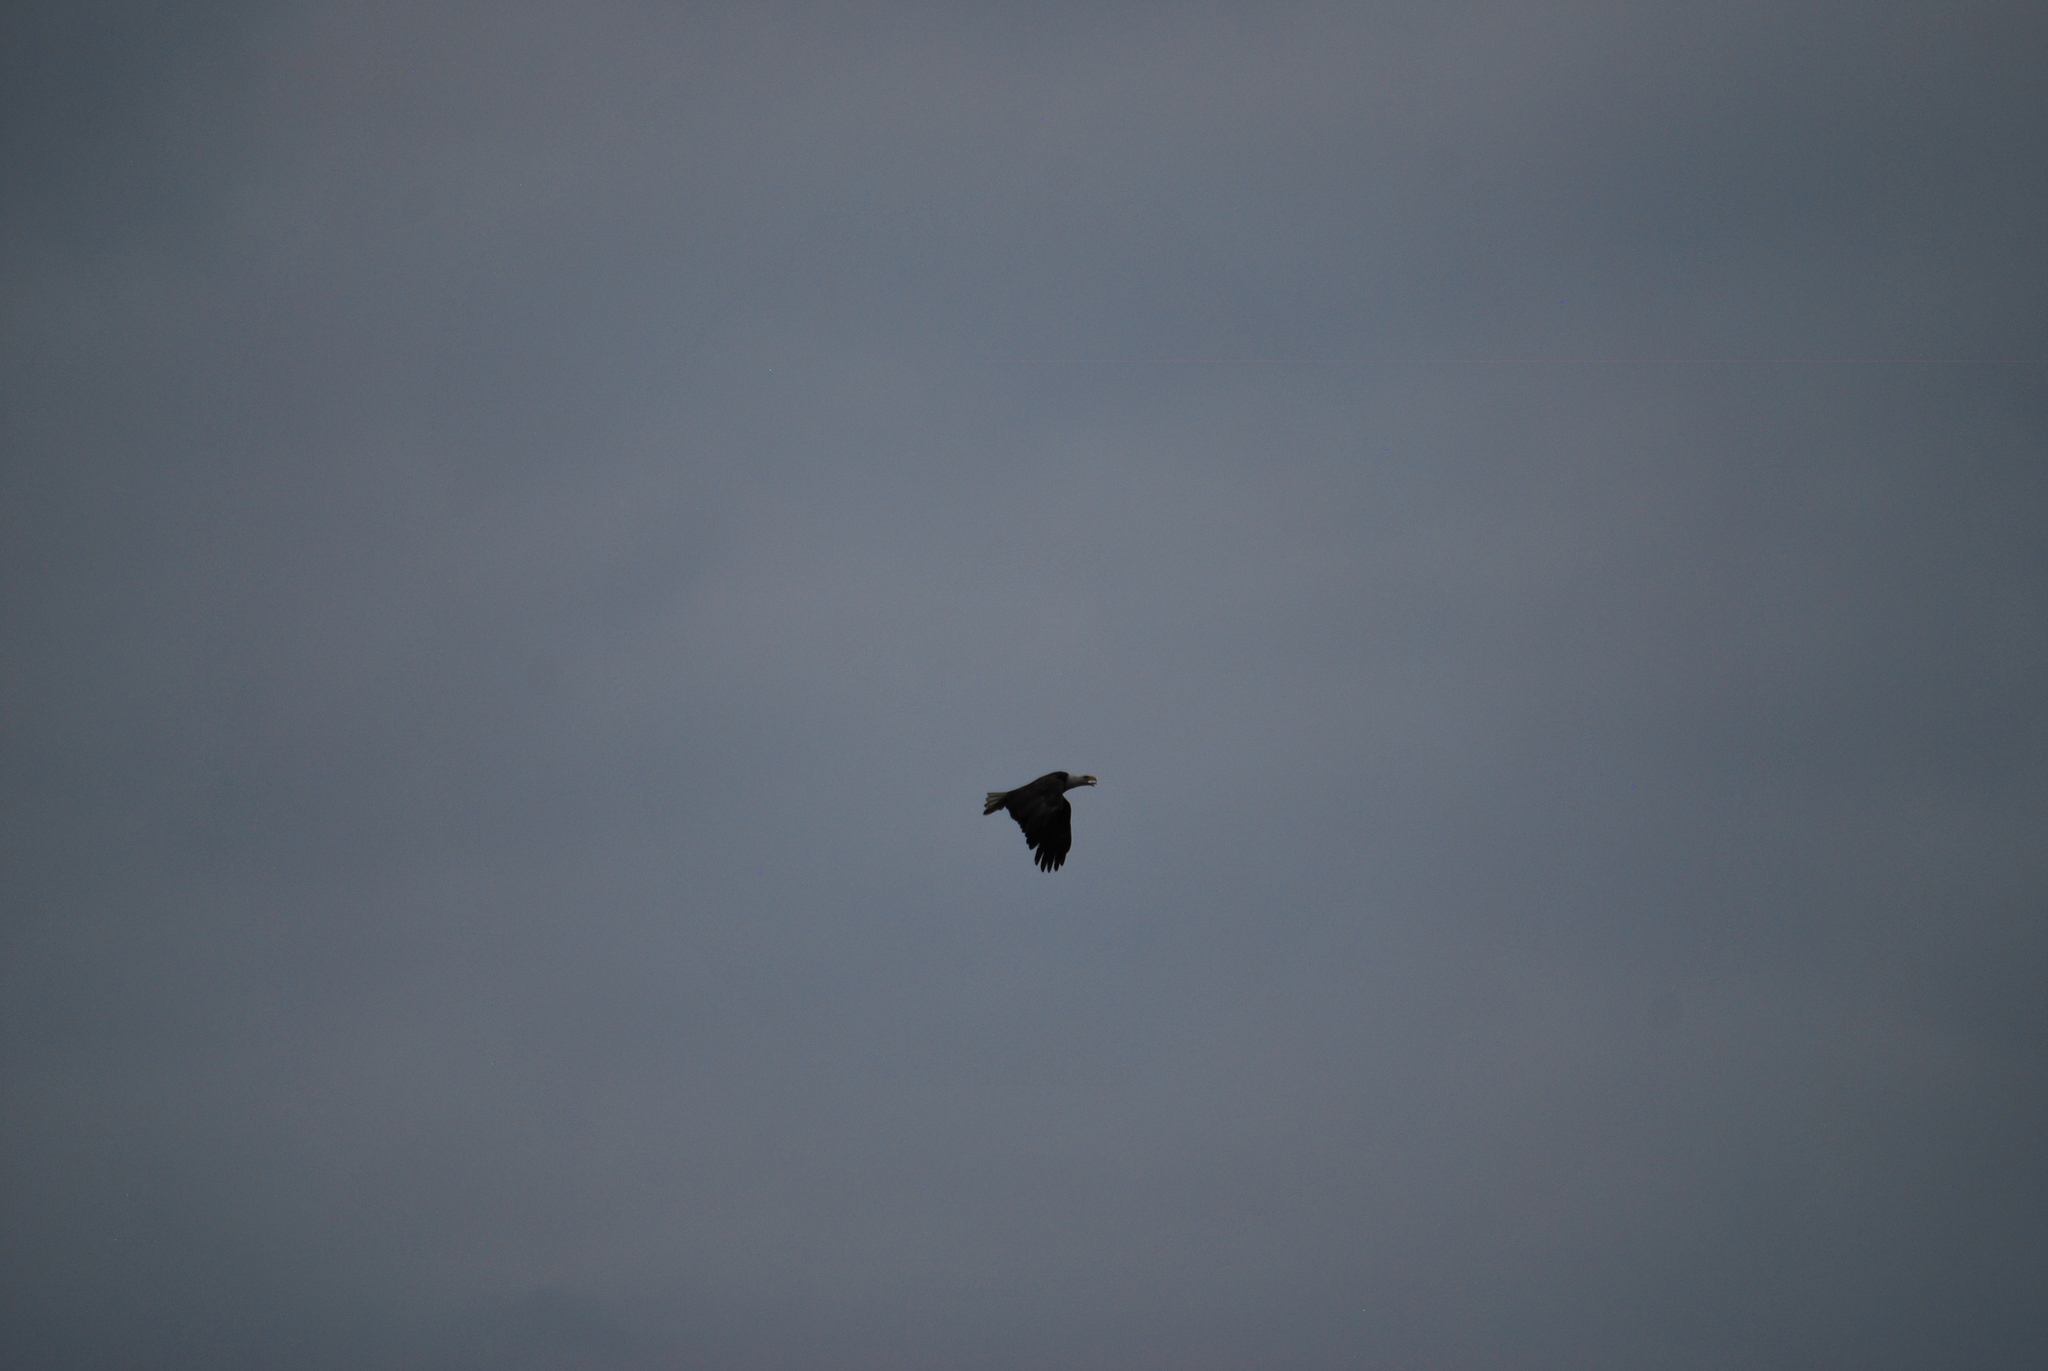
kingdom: Animalia
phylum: Chordata
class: Aves
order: Accipitriformes
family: Accipitridae
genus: Haliaeetus
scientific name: Haliaeetus leucocephalus
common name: Bald eagle
